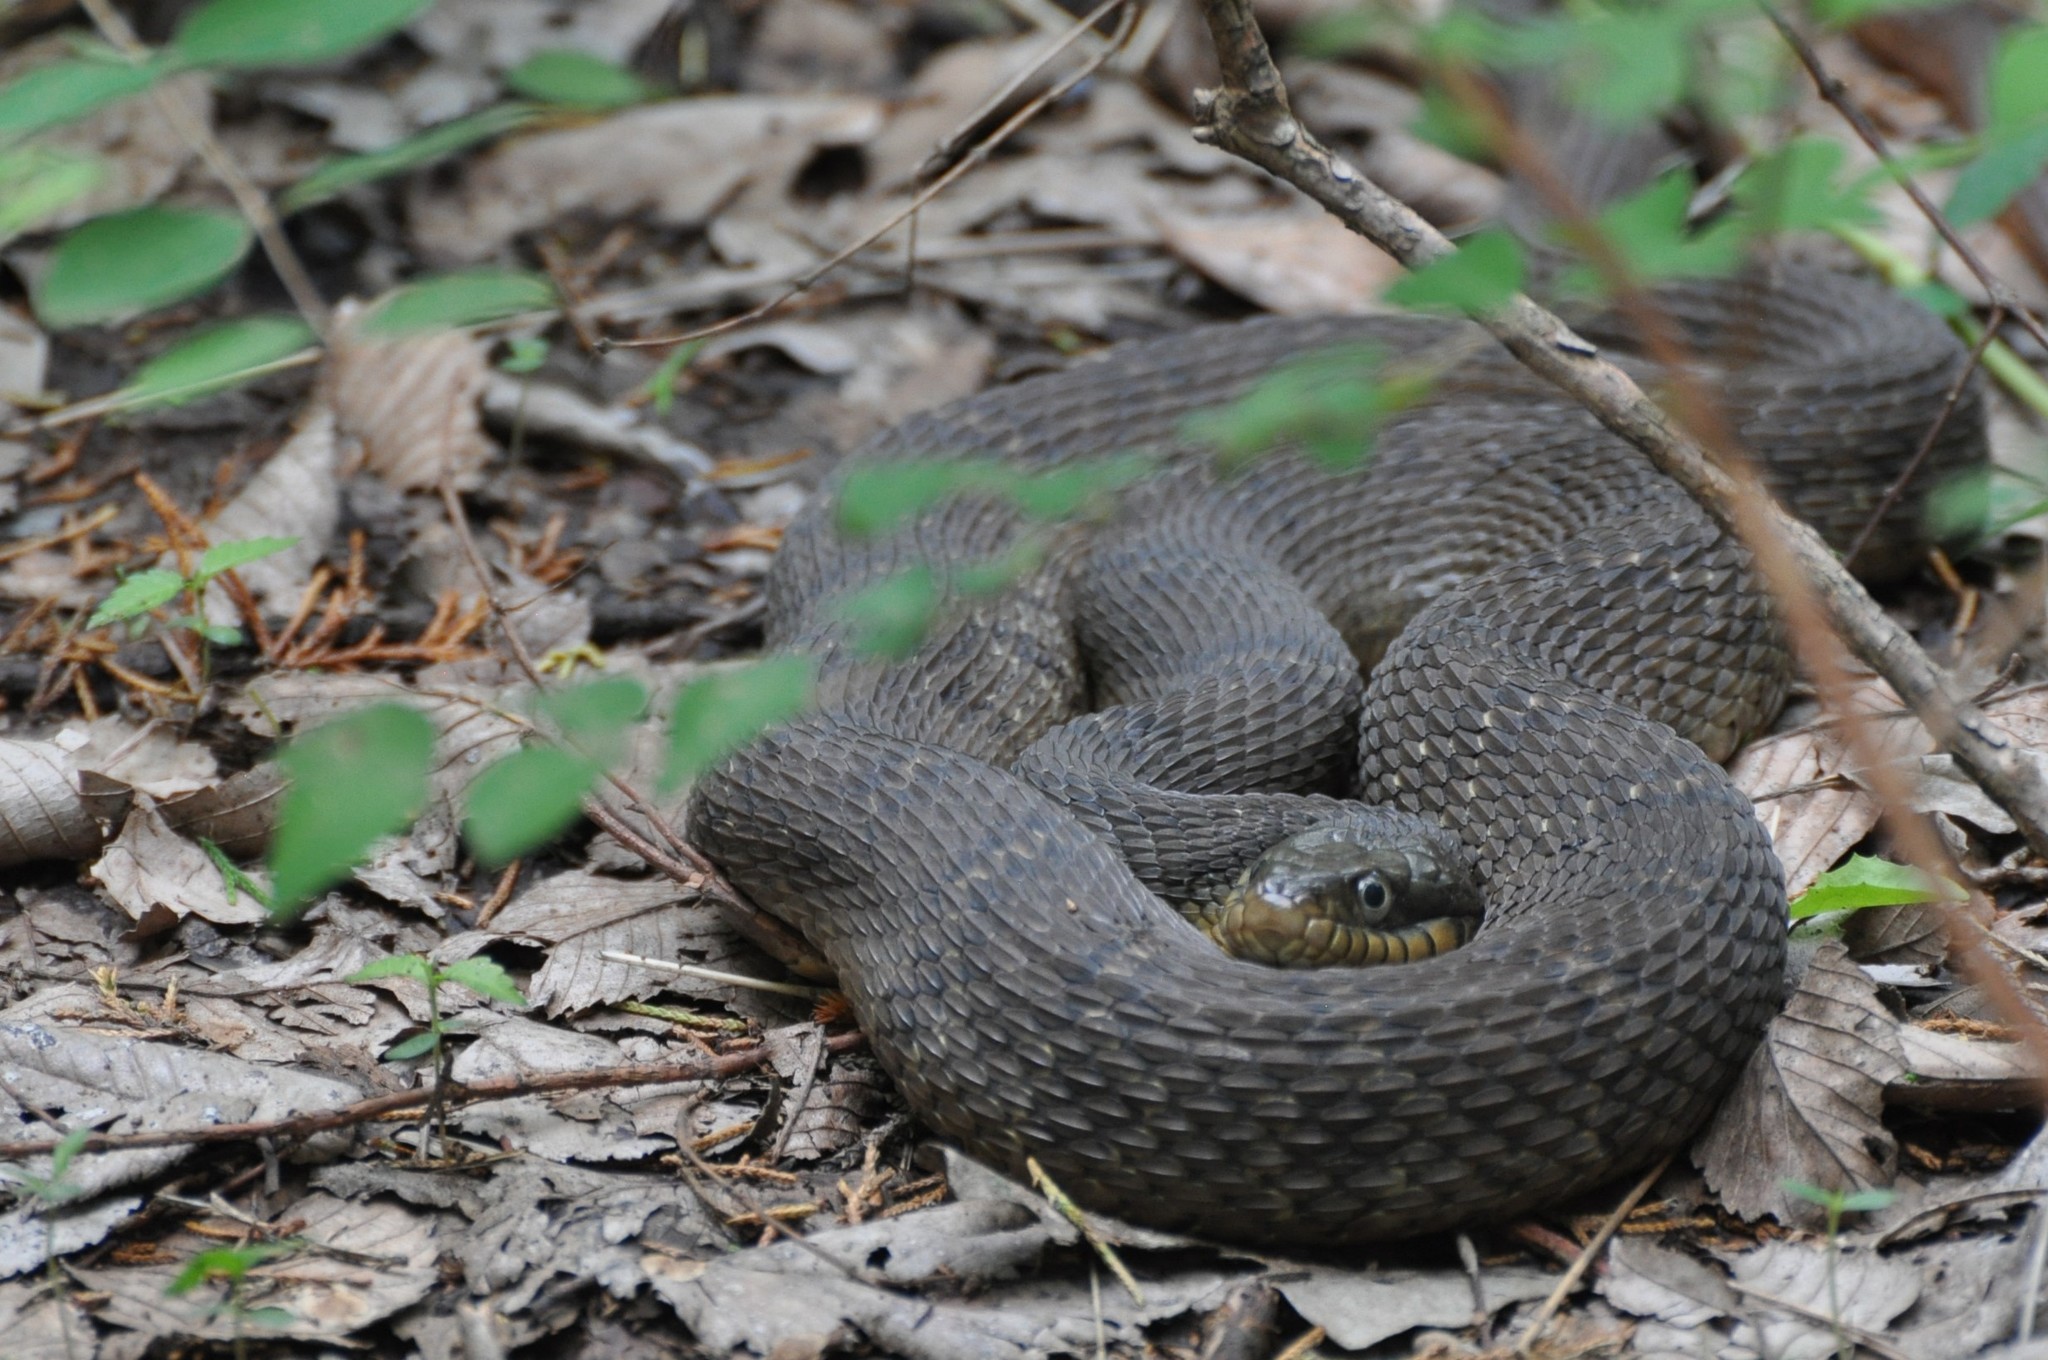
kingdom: Animalia
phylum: Chordata
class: Squamata
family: Colubridae
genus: Nerodia
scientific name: Nerodia erythrogaster
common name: Plainbelly water snake
